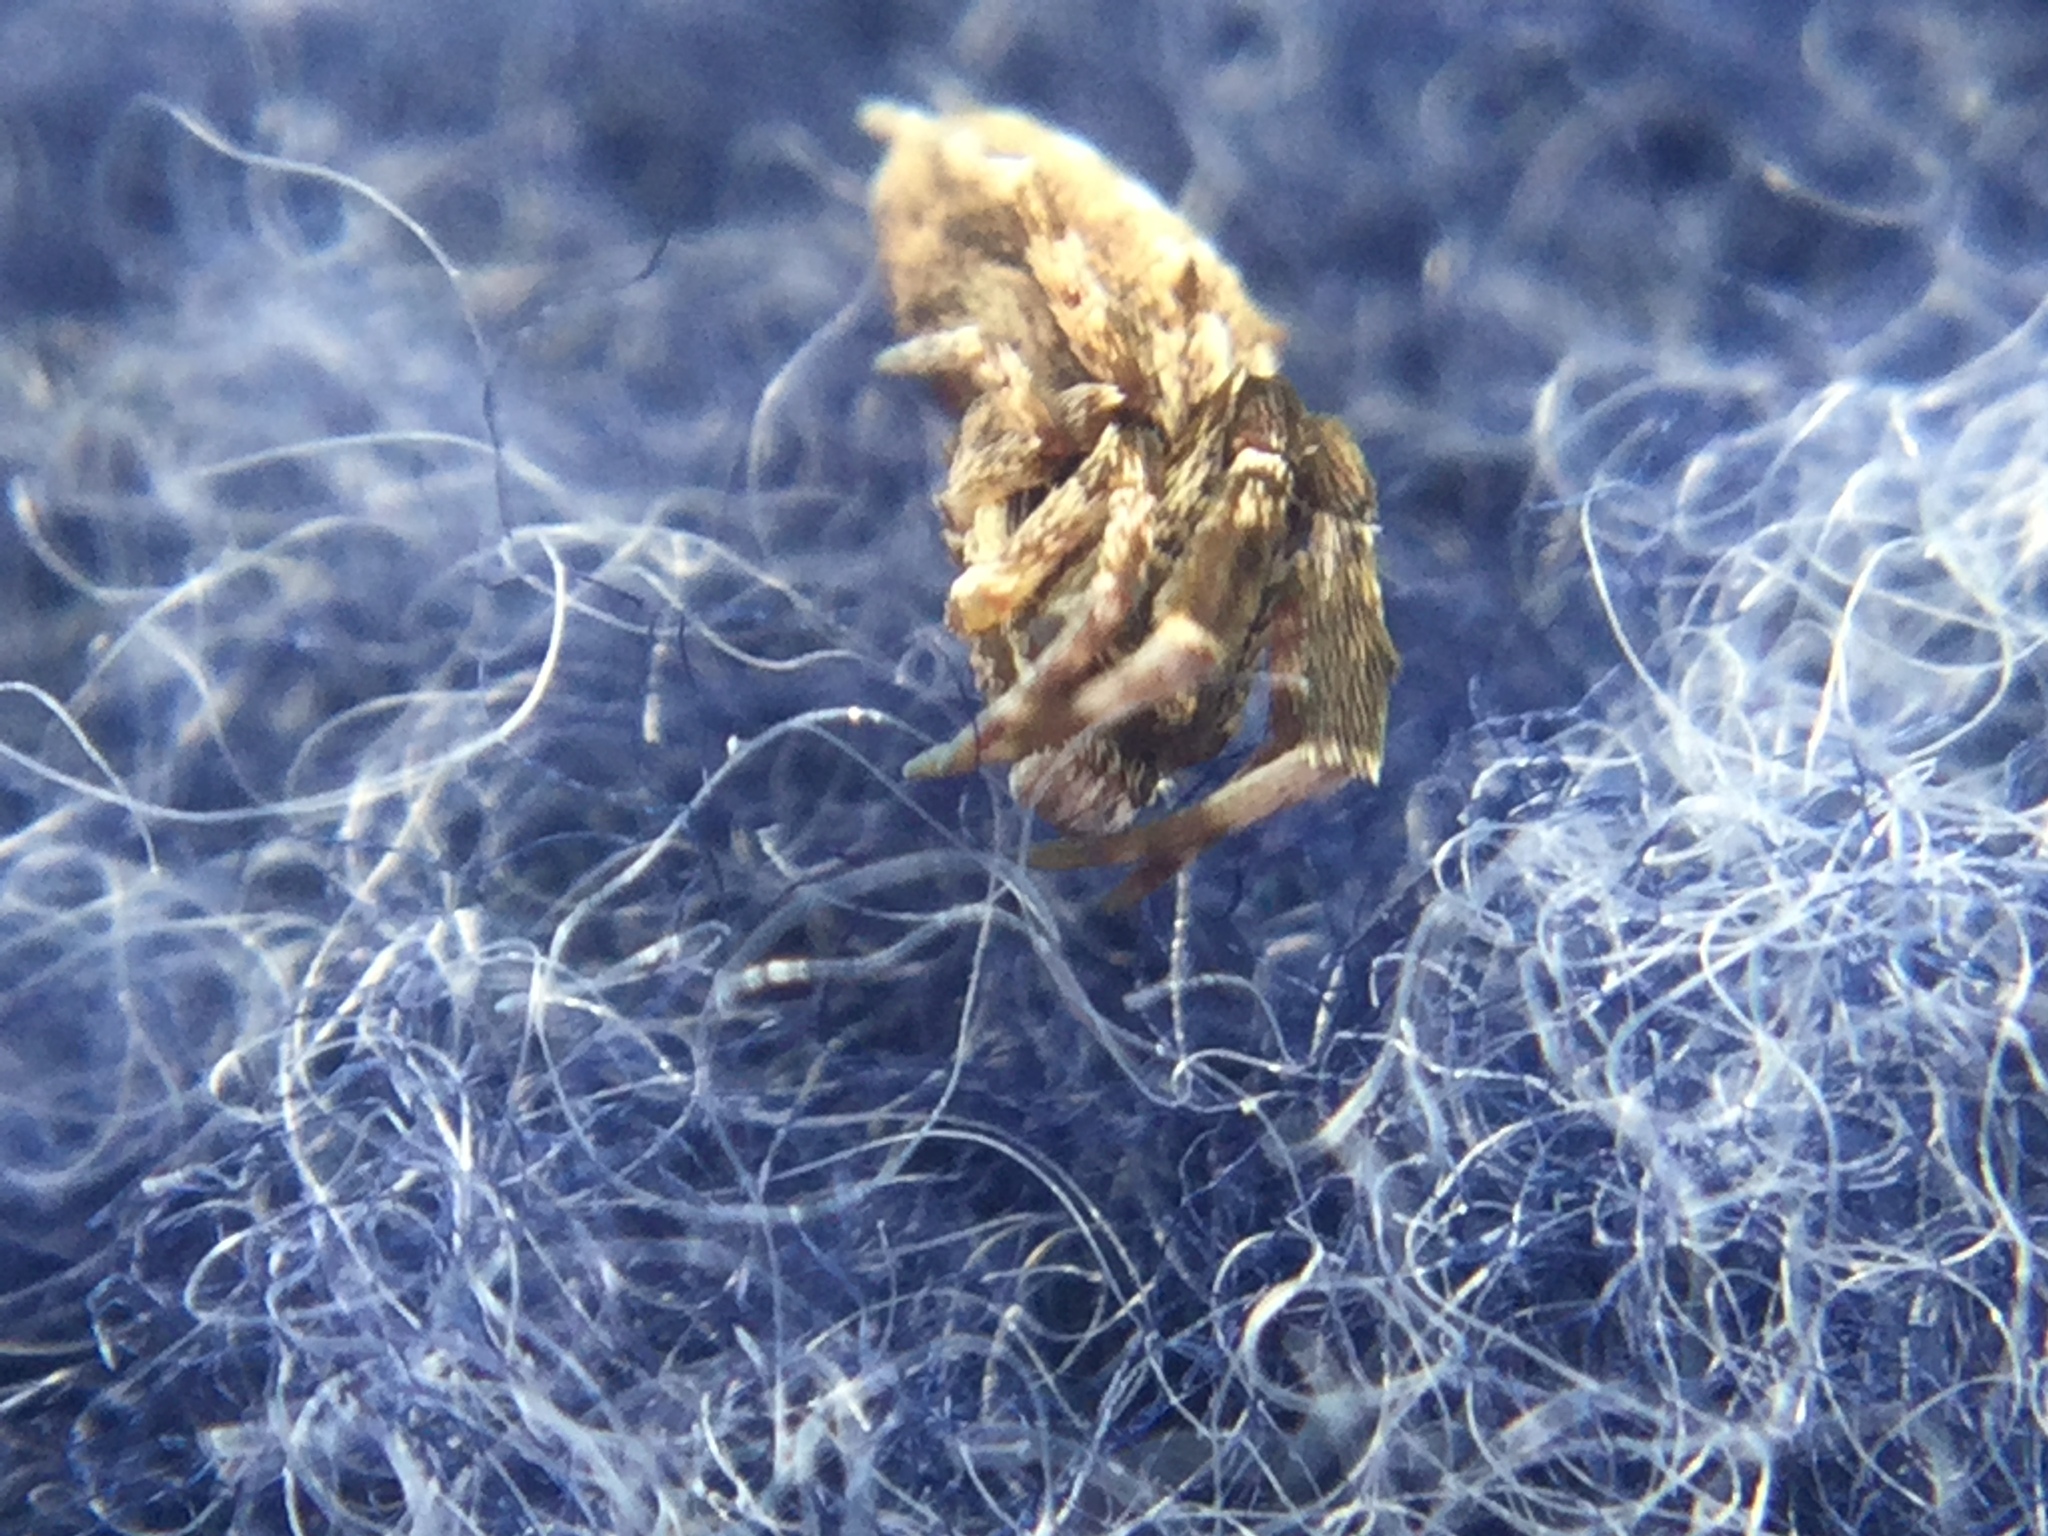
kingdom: Animalia
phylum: Arthropoda
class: Arachnida
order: Araneae
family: Uloboridae
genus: Uloborus
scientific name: Uloborus glomosus
